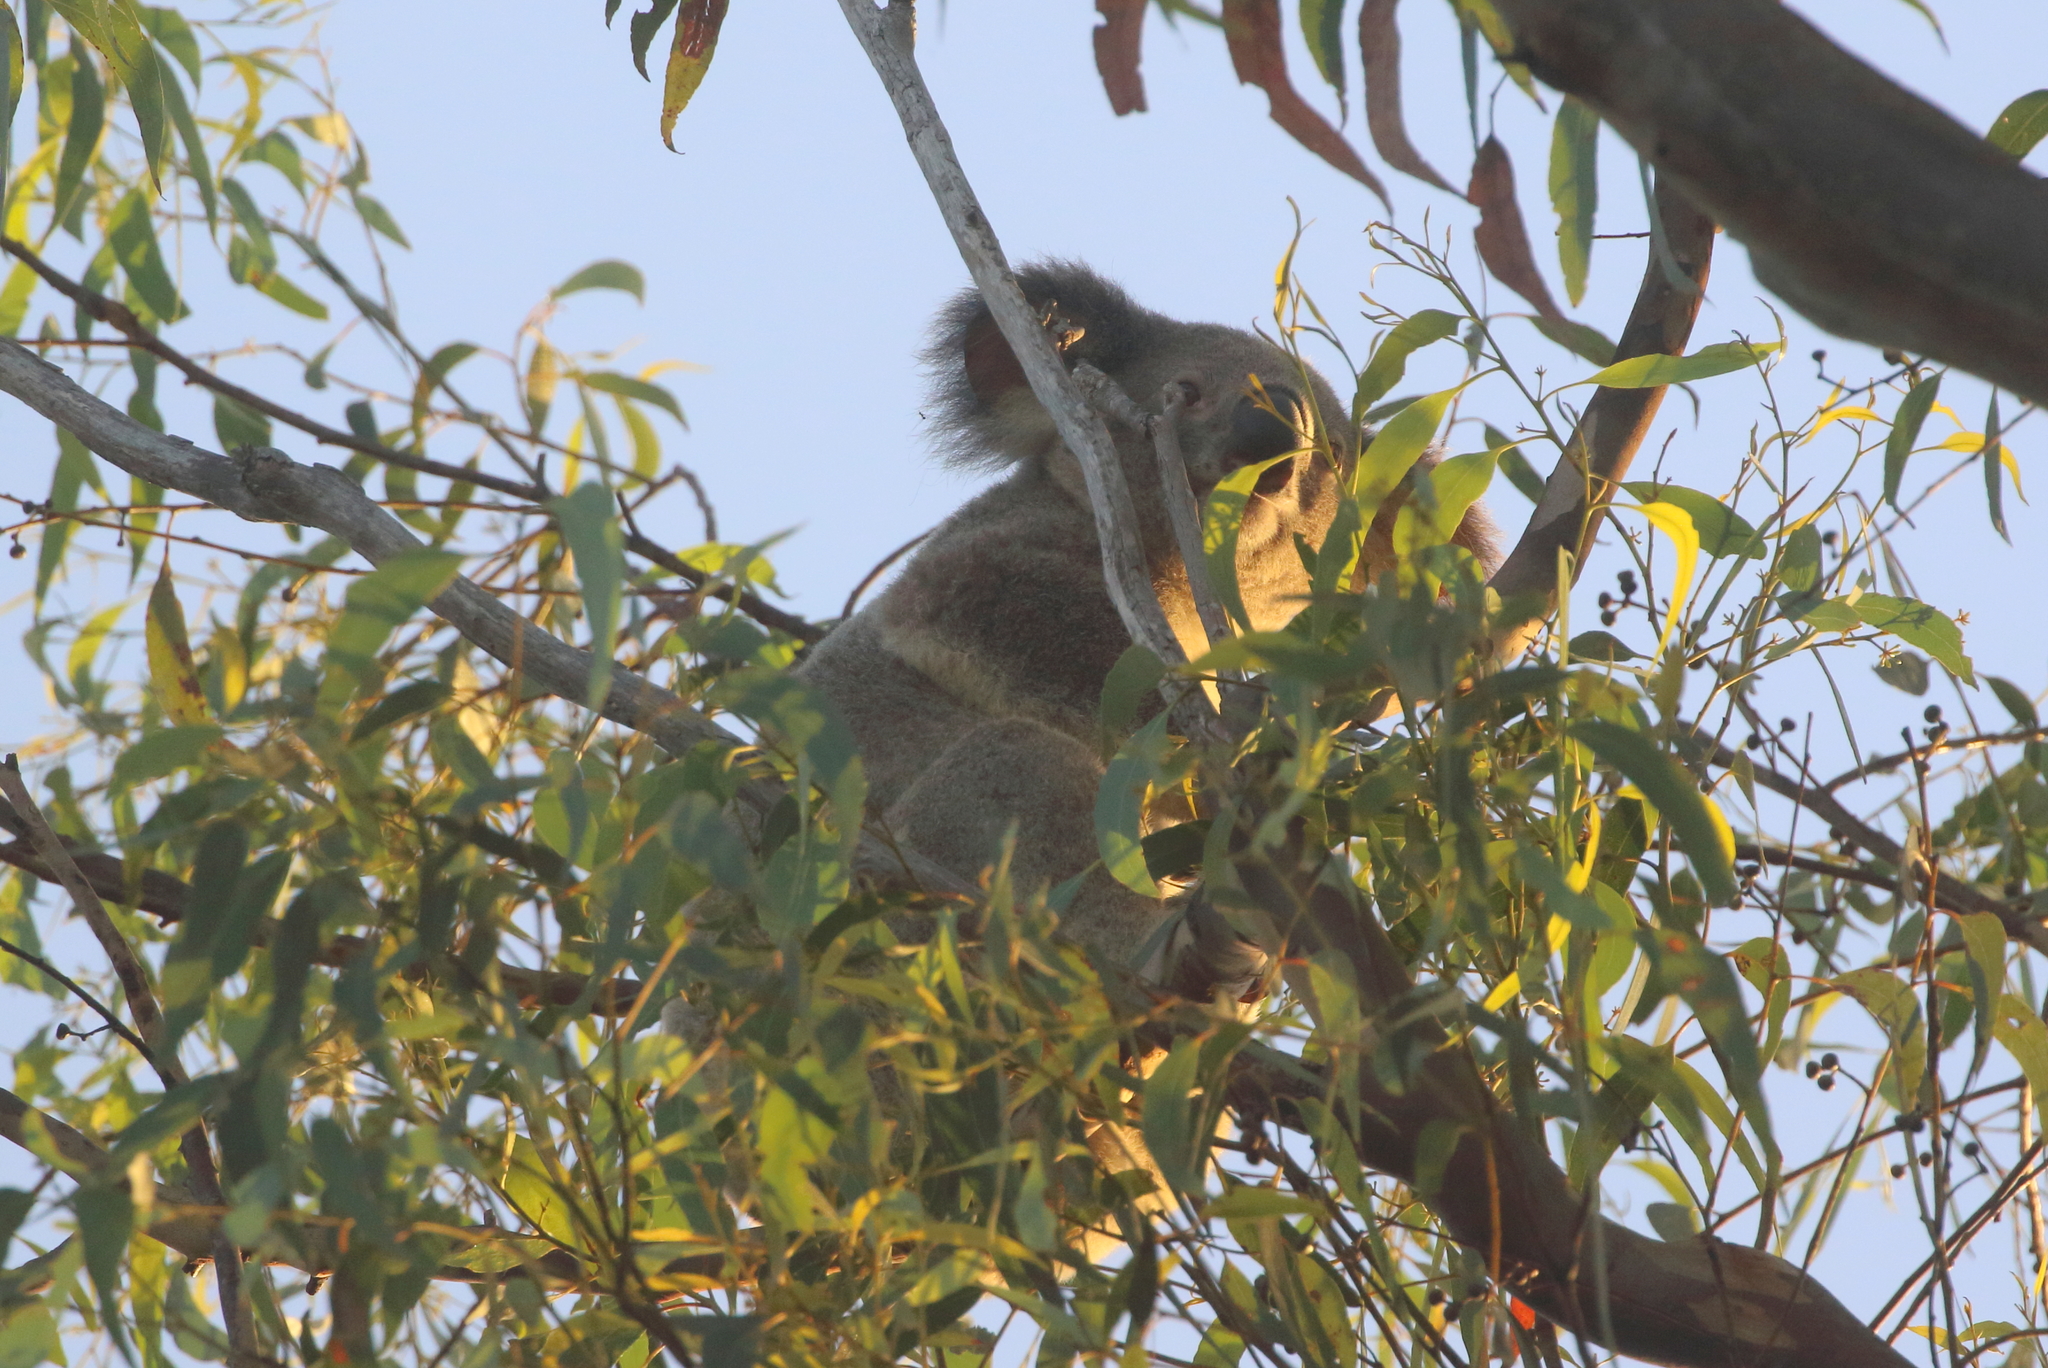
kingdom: Animalia
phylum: Chordata
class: Mammalia
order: Diprotodontia
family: Phascolarctidae
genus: Phascolarctos
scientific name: Phascolarctos cinereus
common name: Koala
